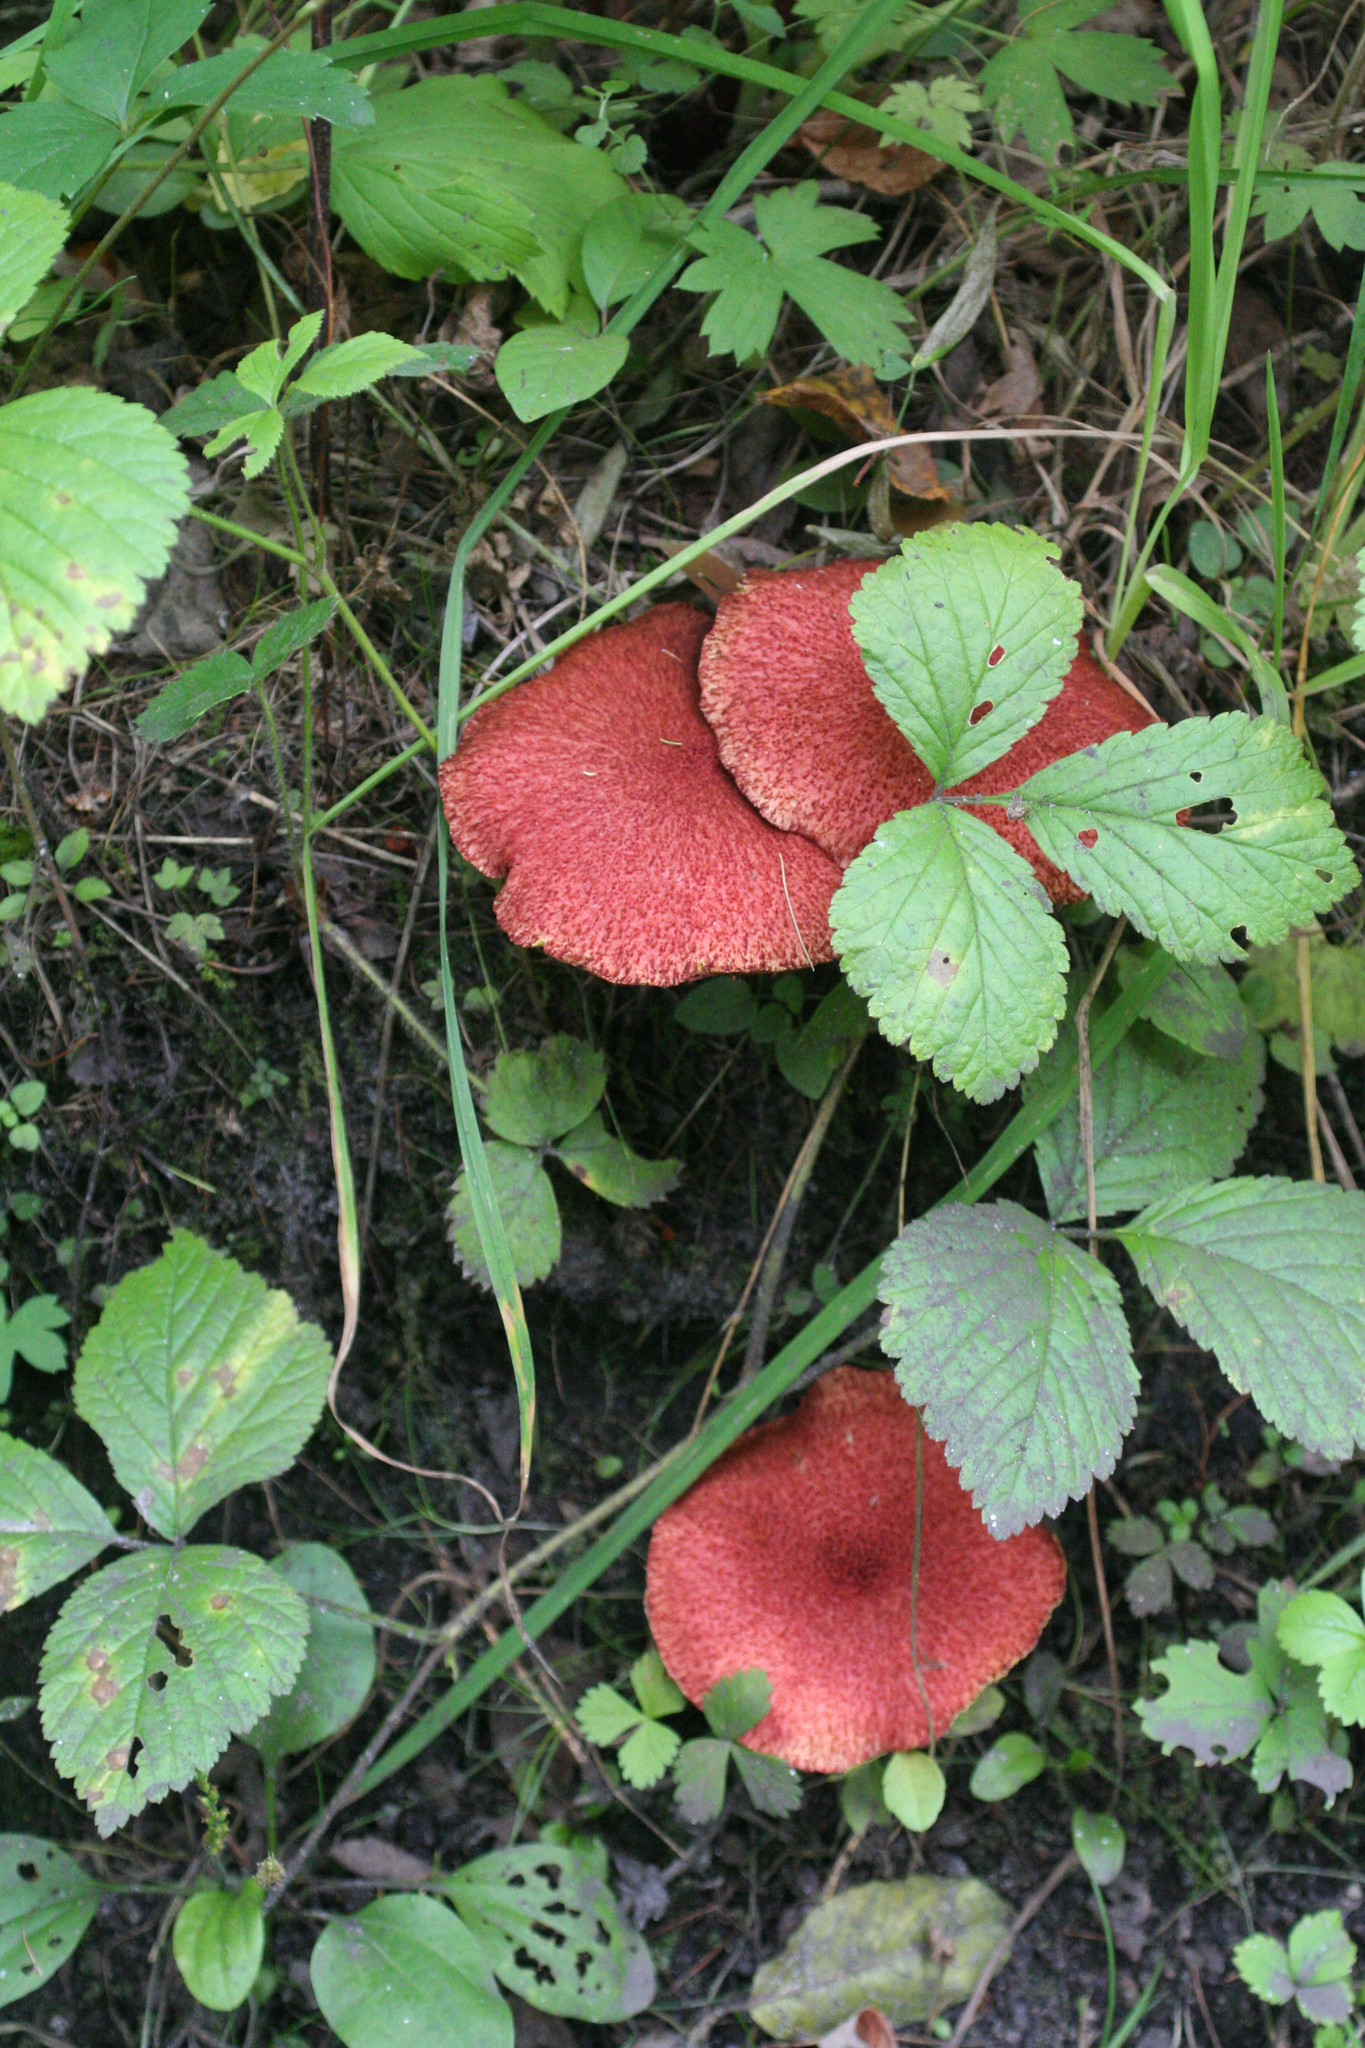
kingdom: Plantae
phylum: Tracheophyta
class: Magnoliopsida
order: Rosales
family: Rosaceae
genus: Rubus
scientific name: Rubus saxatilis
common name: Stone bramble
